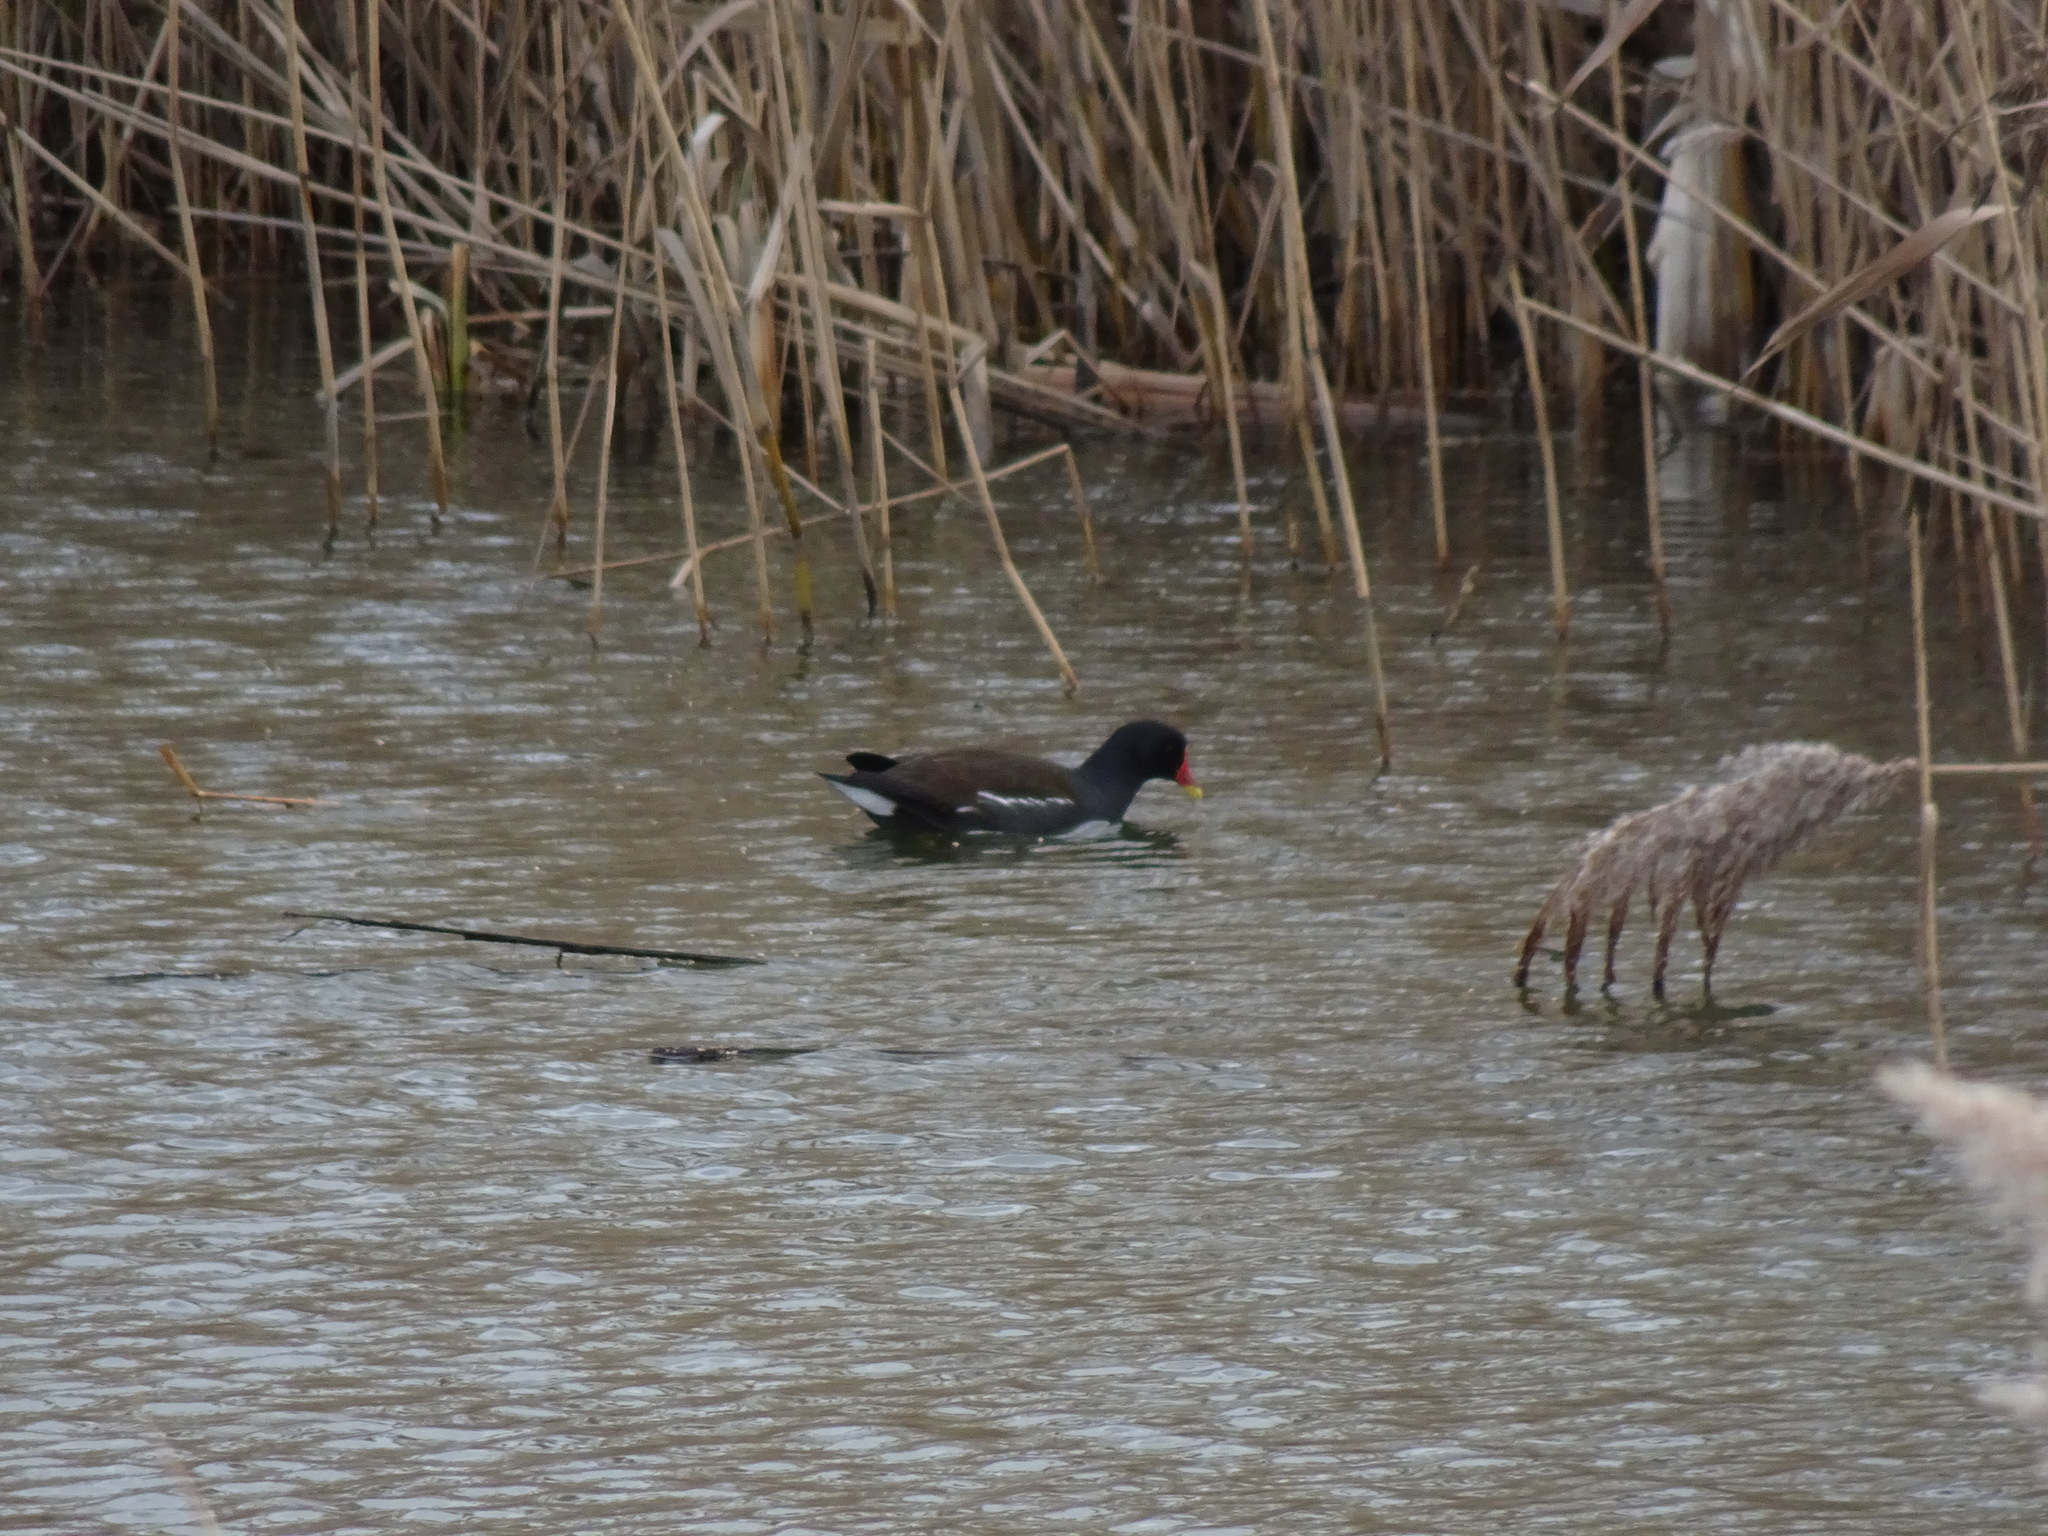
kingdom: Animalia
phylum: Chordata
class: Aves
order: Gruiformes
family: Rallidae
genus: Gallinula
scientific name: Gallinula chloropus
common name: Common moorhen
